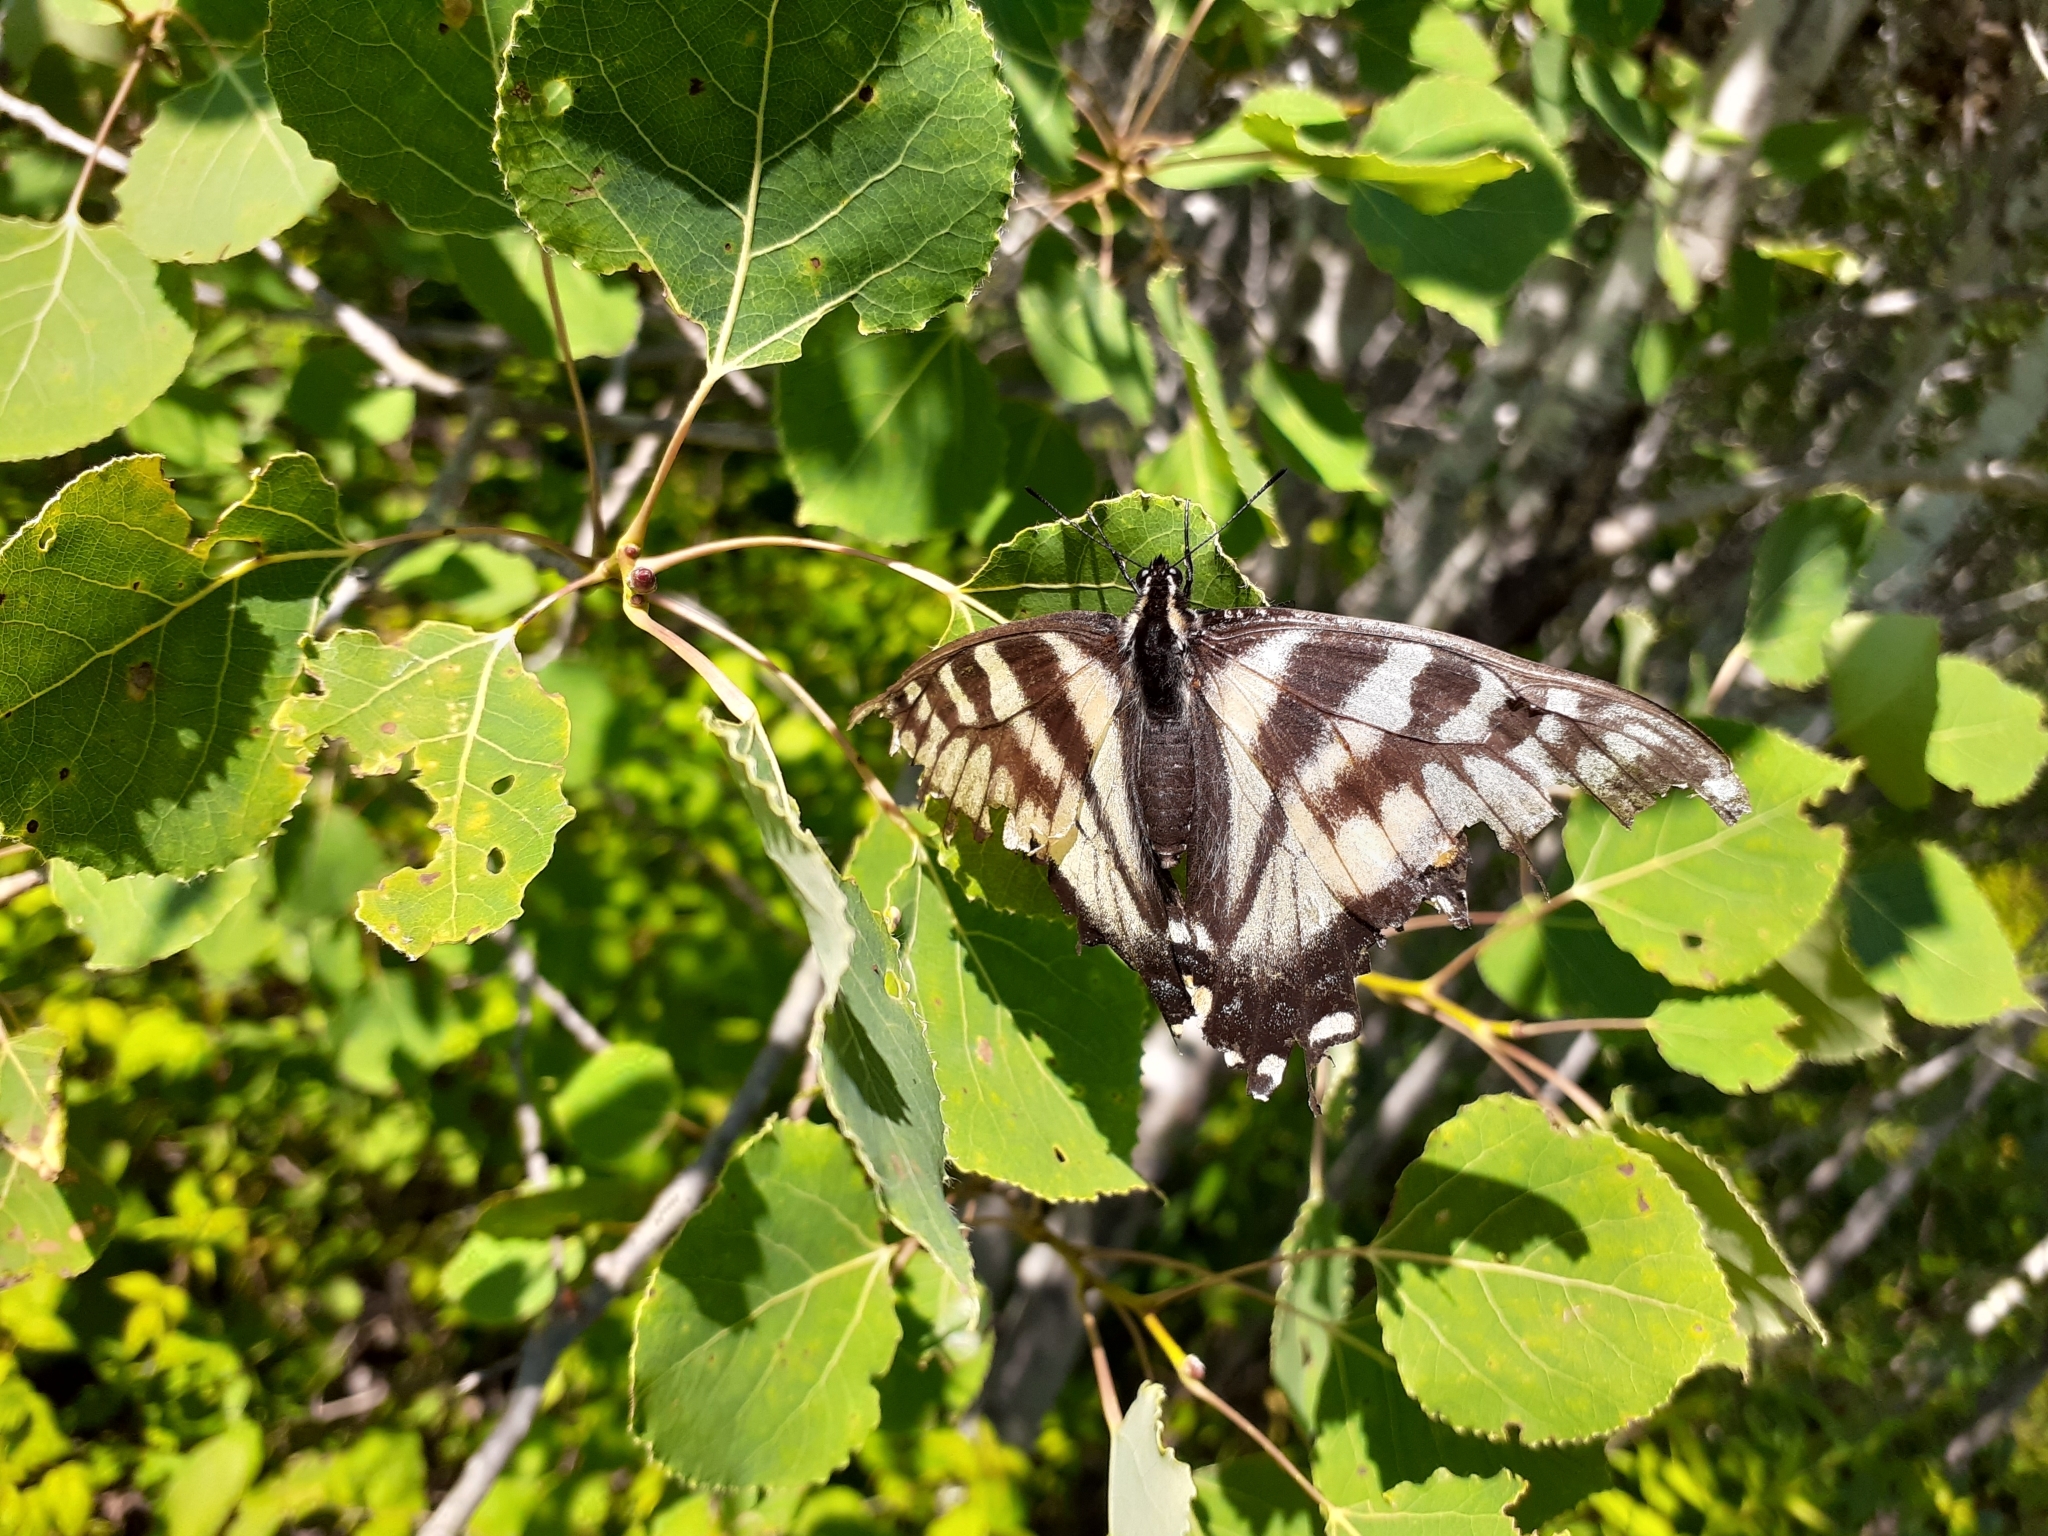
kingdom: Animalia
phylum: Arthropoda
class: Insecta
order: Lepidoptera
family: Papilionidae
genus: Papilio
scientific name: Papilio canadensis
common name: Canadian tiger swallowtail
